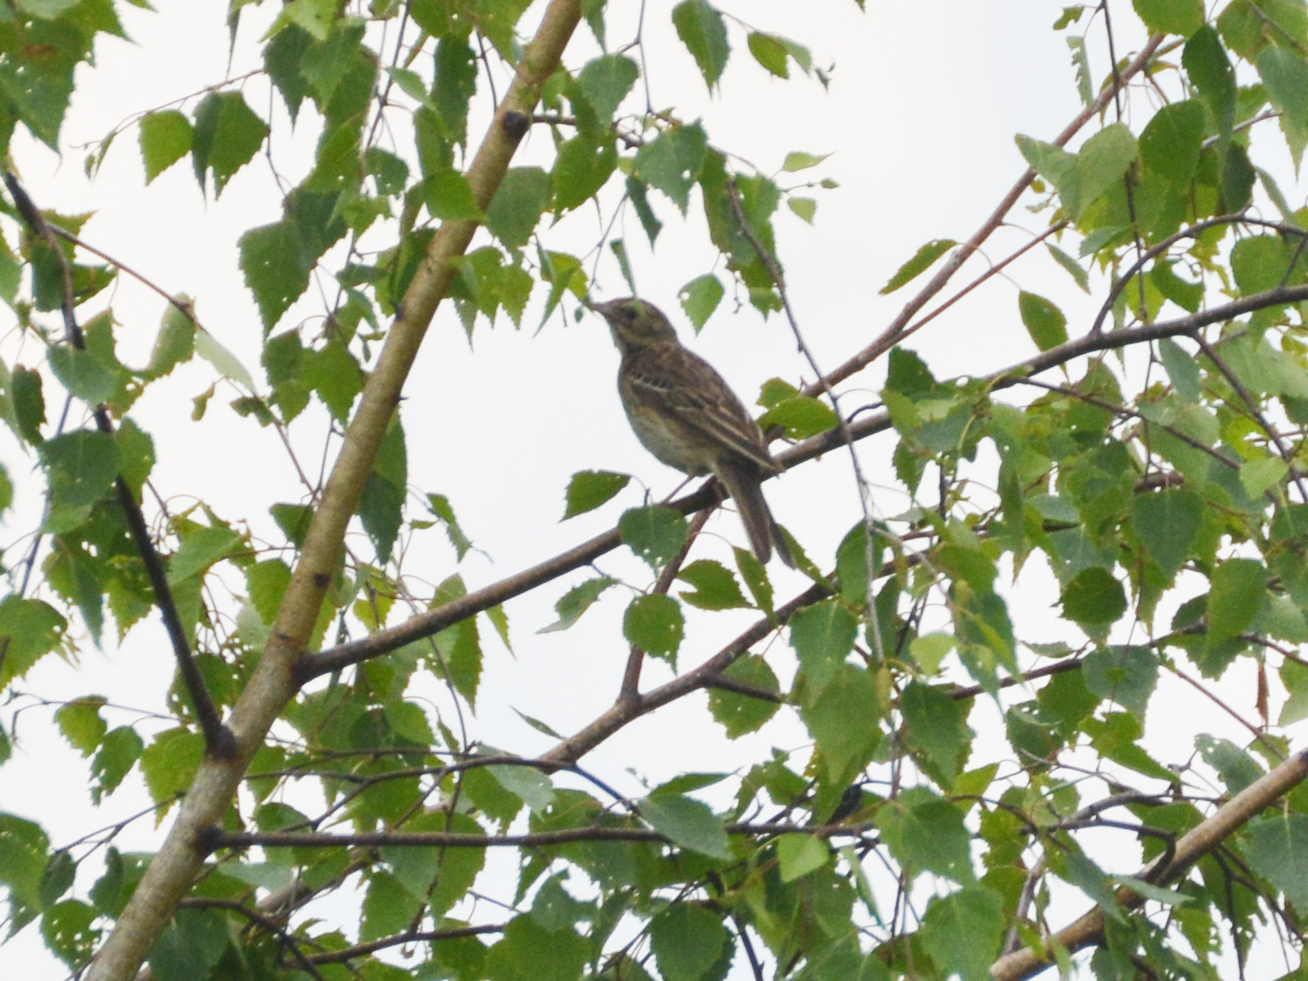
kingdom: Animalia
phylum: Chordata
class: Aves
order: Passeriformes
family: Motacillidae
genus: Anthus
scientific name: Anthus trivialis
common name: Tree pipit
